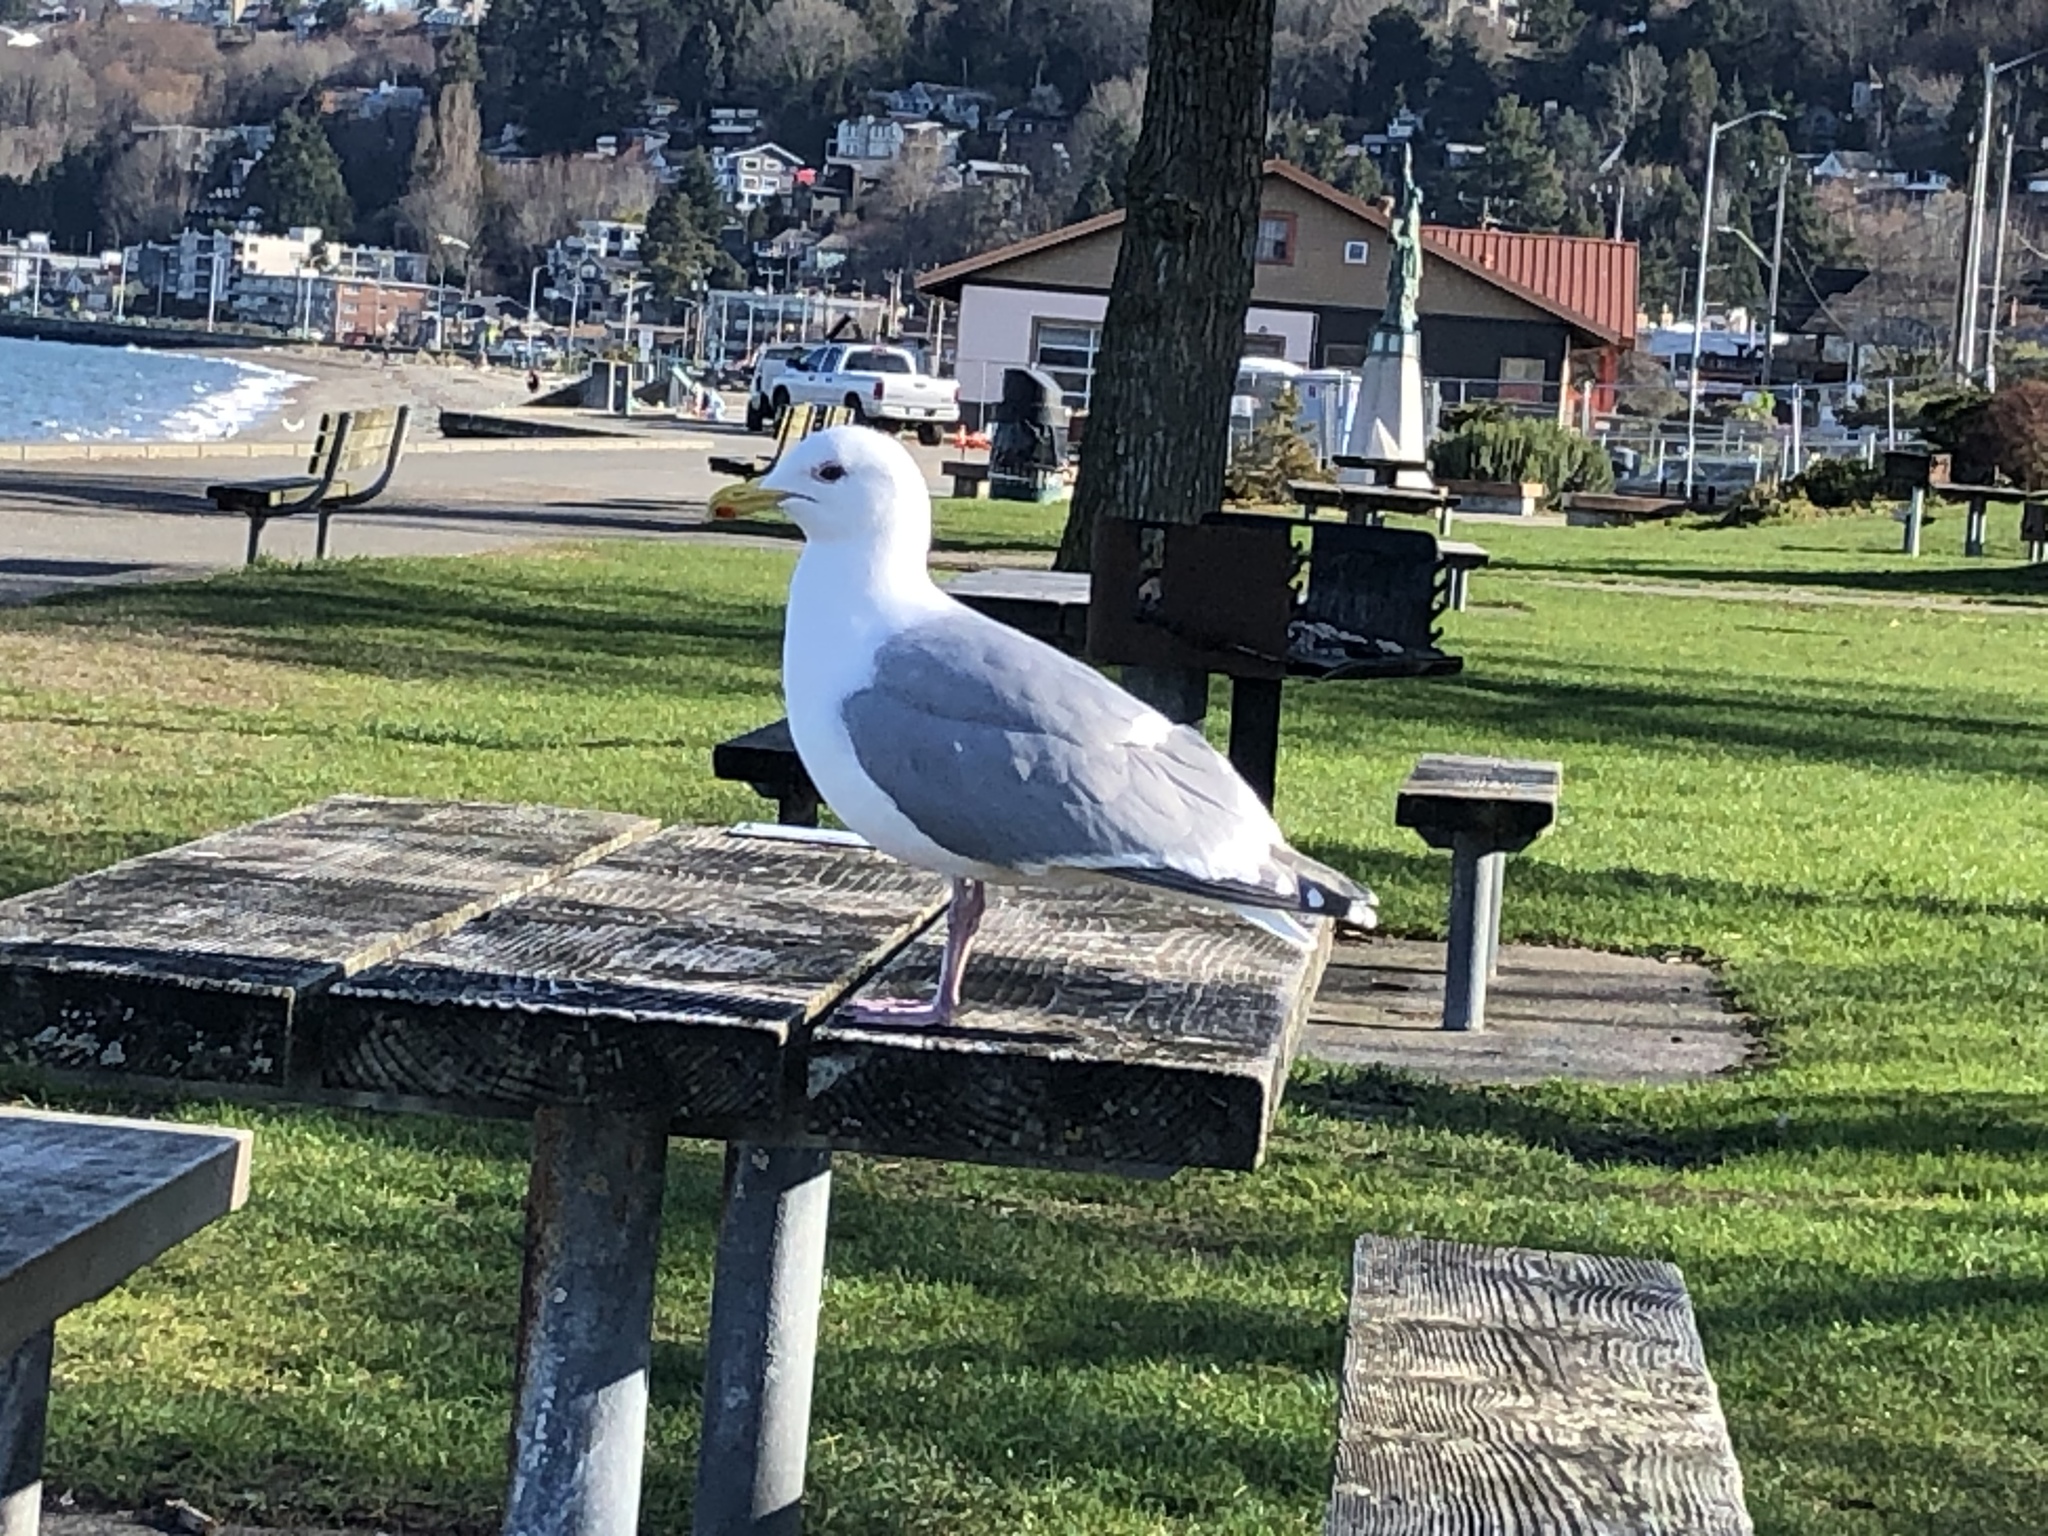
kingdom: Animalia
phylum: Chordata
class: Aves
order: Charadriiformes
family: Laridae
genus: Larus
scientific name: Larus
